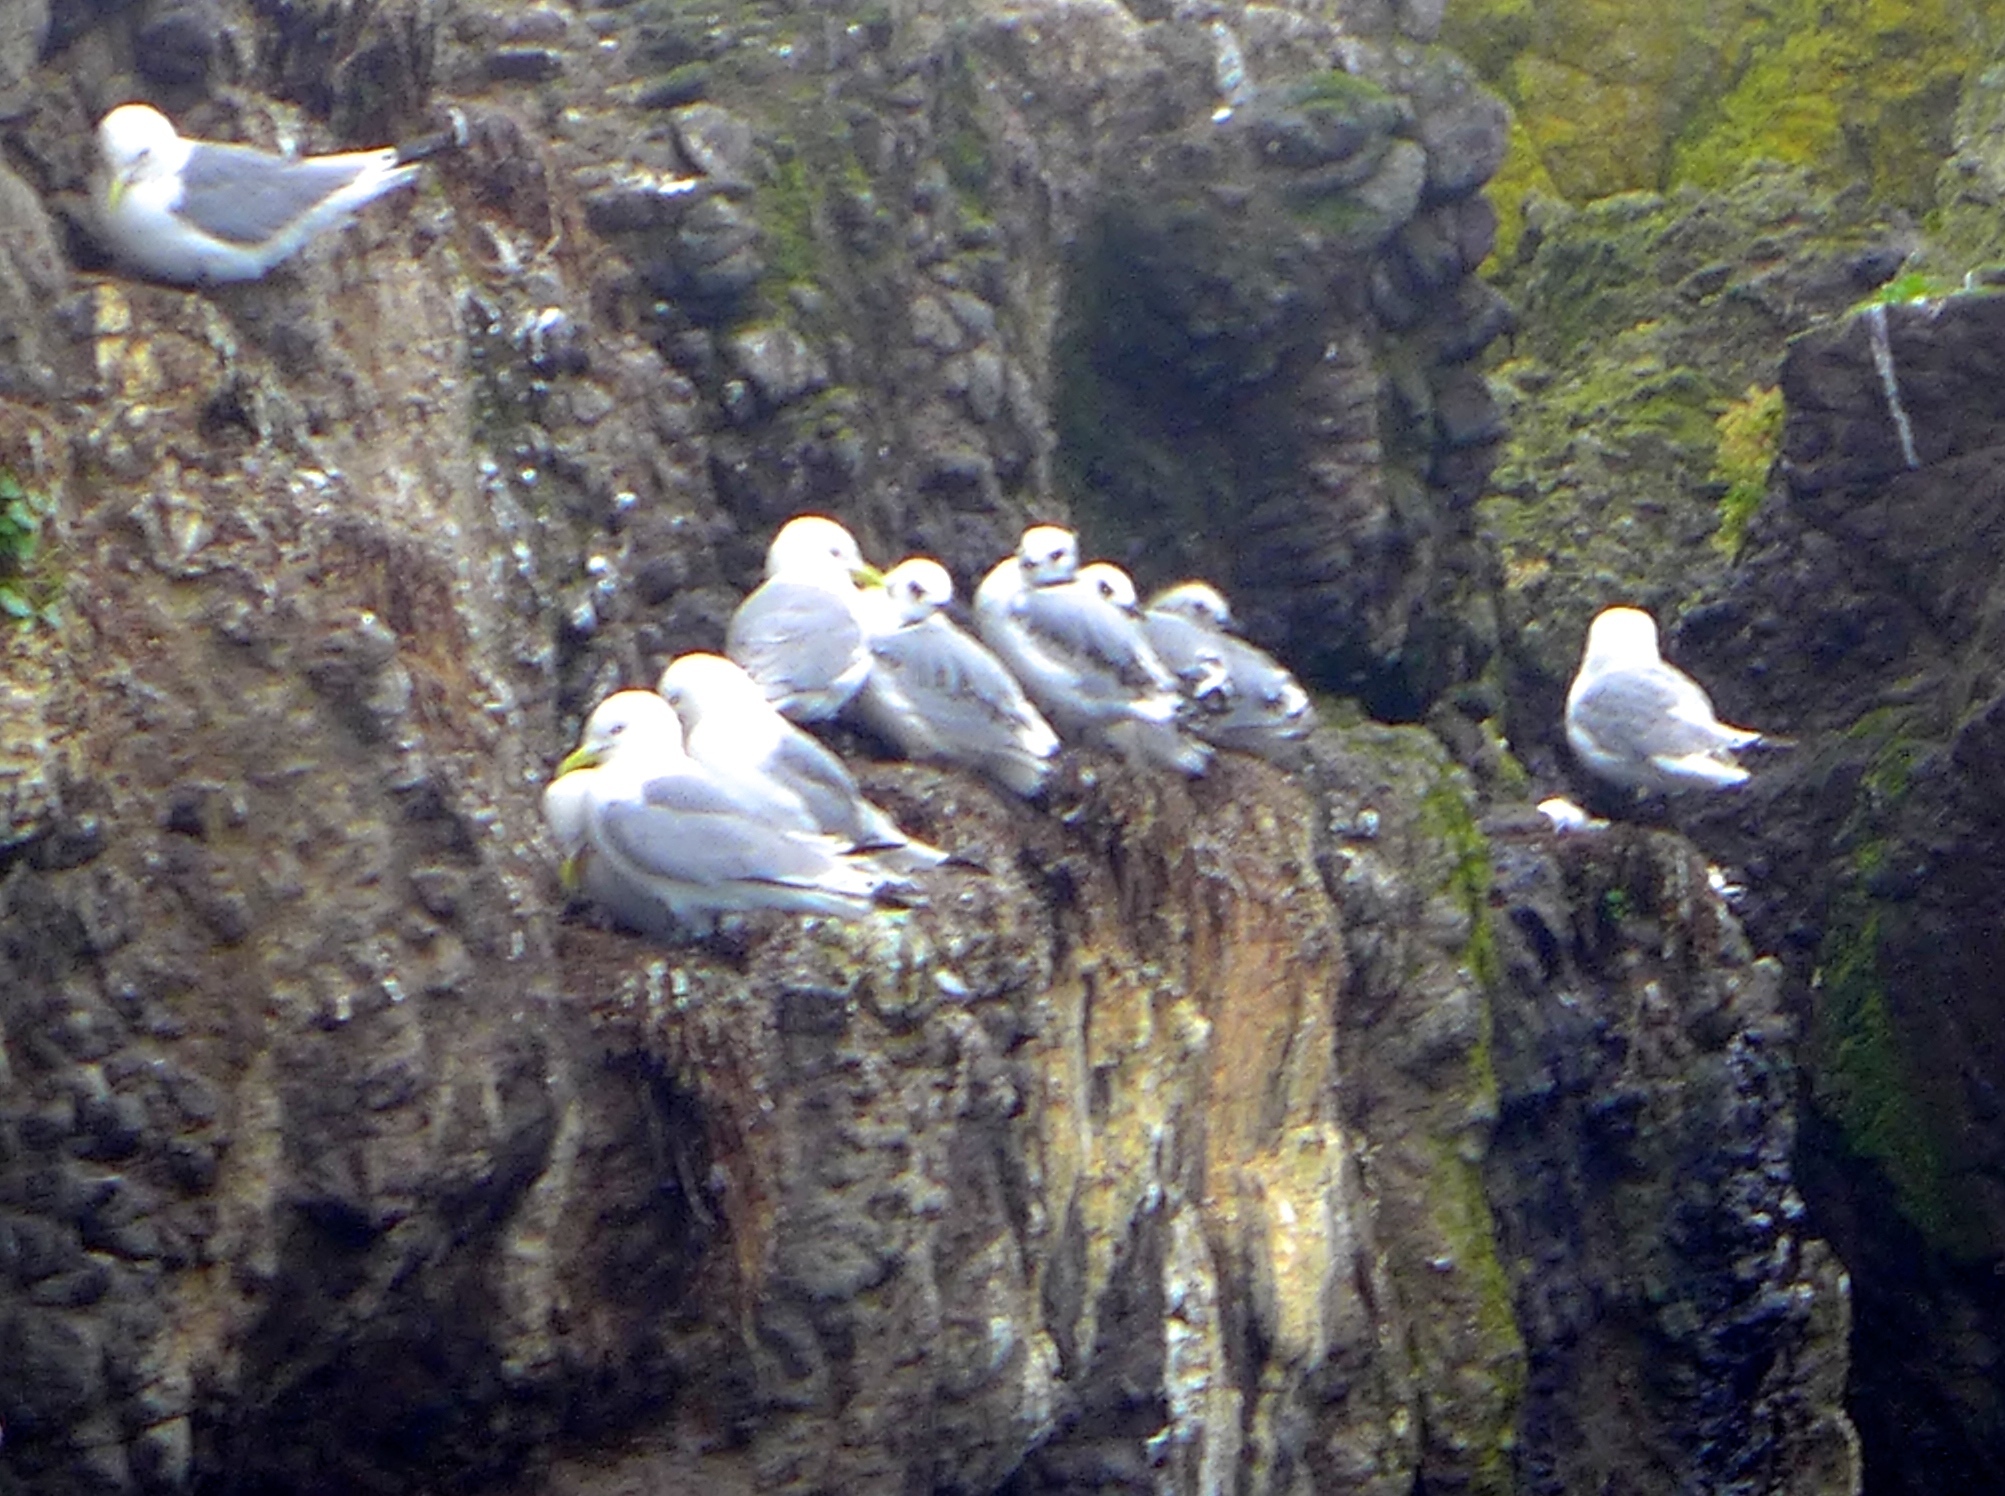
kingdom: Animalia
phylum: Chordata
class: Aves
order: Charadriiformes
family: Laridae
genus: Rissa
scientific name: Rissa tridactyla
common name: Black-legged kittiwake
